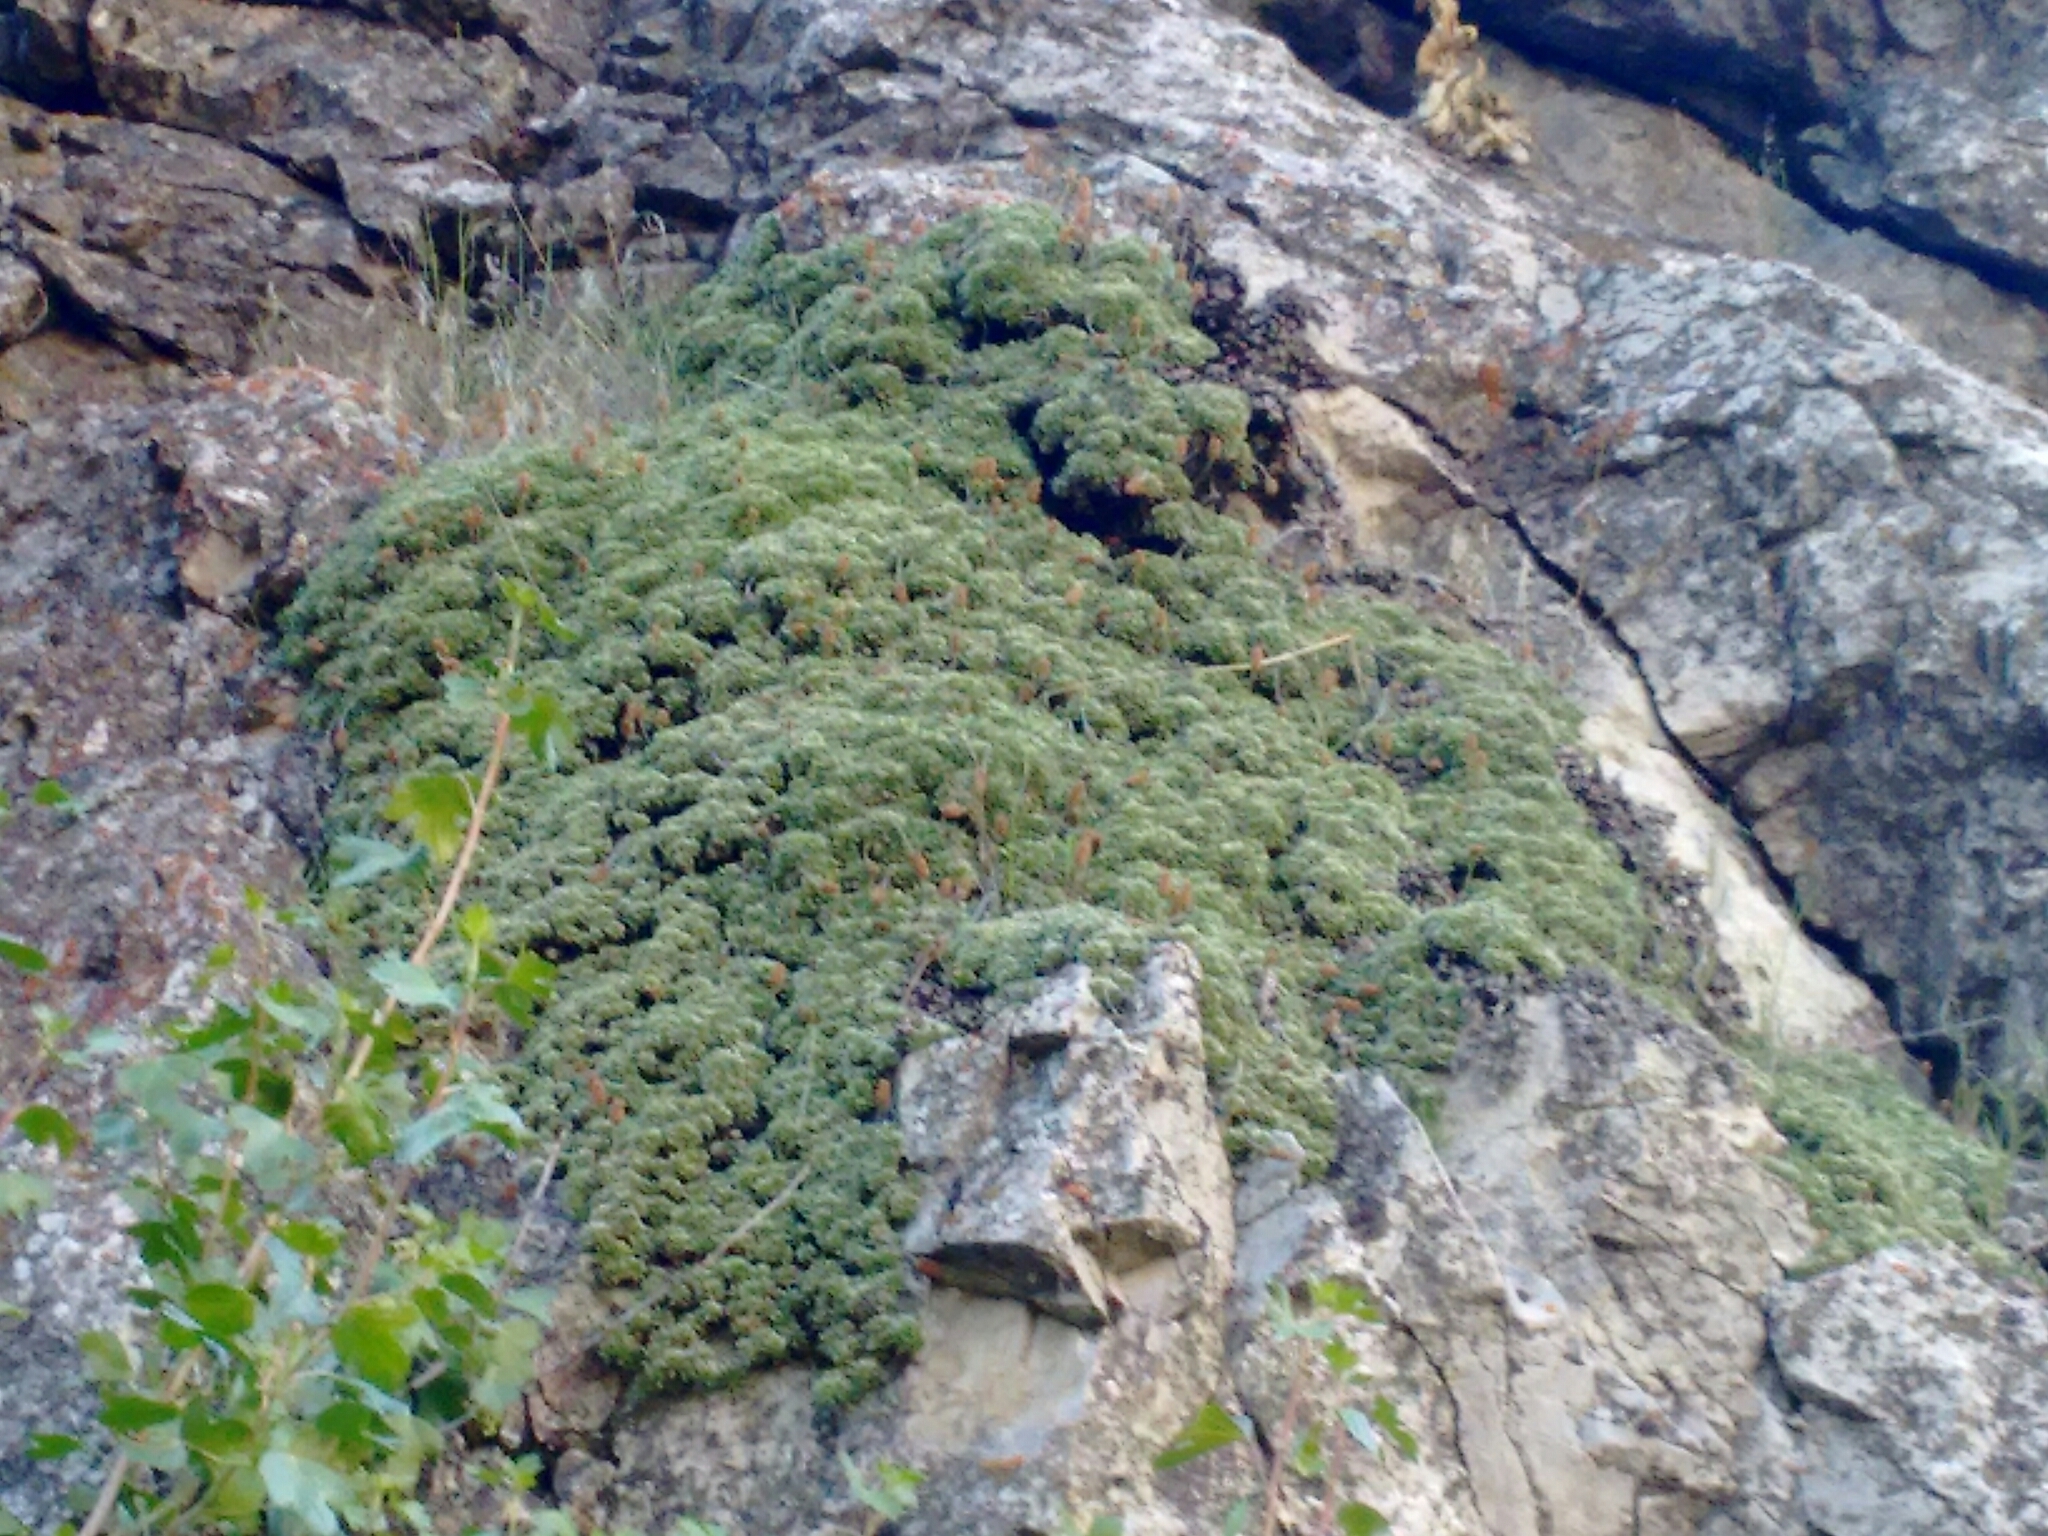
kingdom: Plantae
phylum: Tracheophyta
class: Magnoliopsida
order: Rosales
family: Rosaceae
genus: Petrophytum
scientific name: Petrophytum caespitosum
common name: Mat rockspirea
